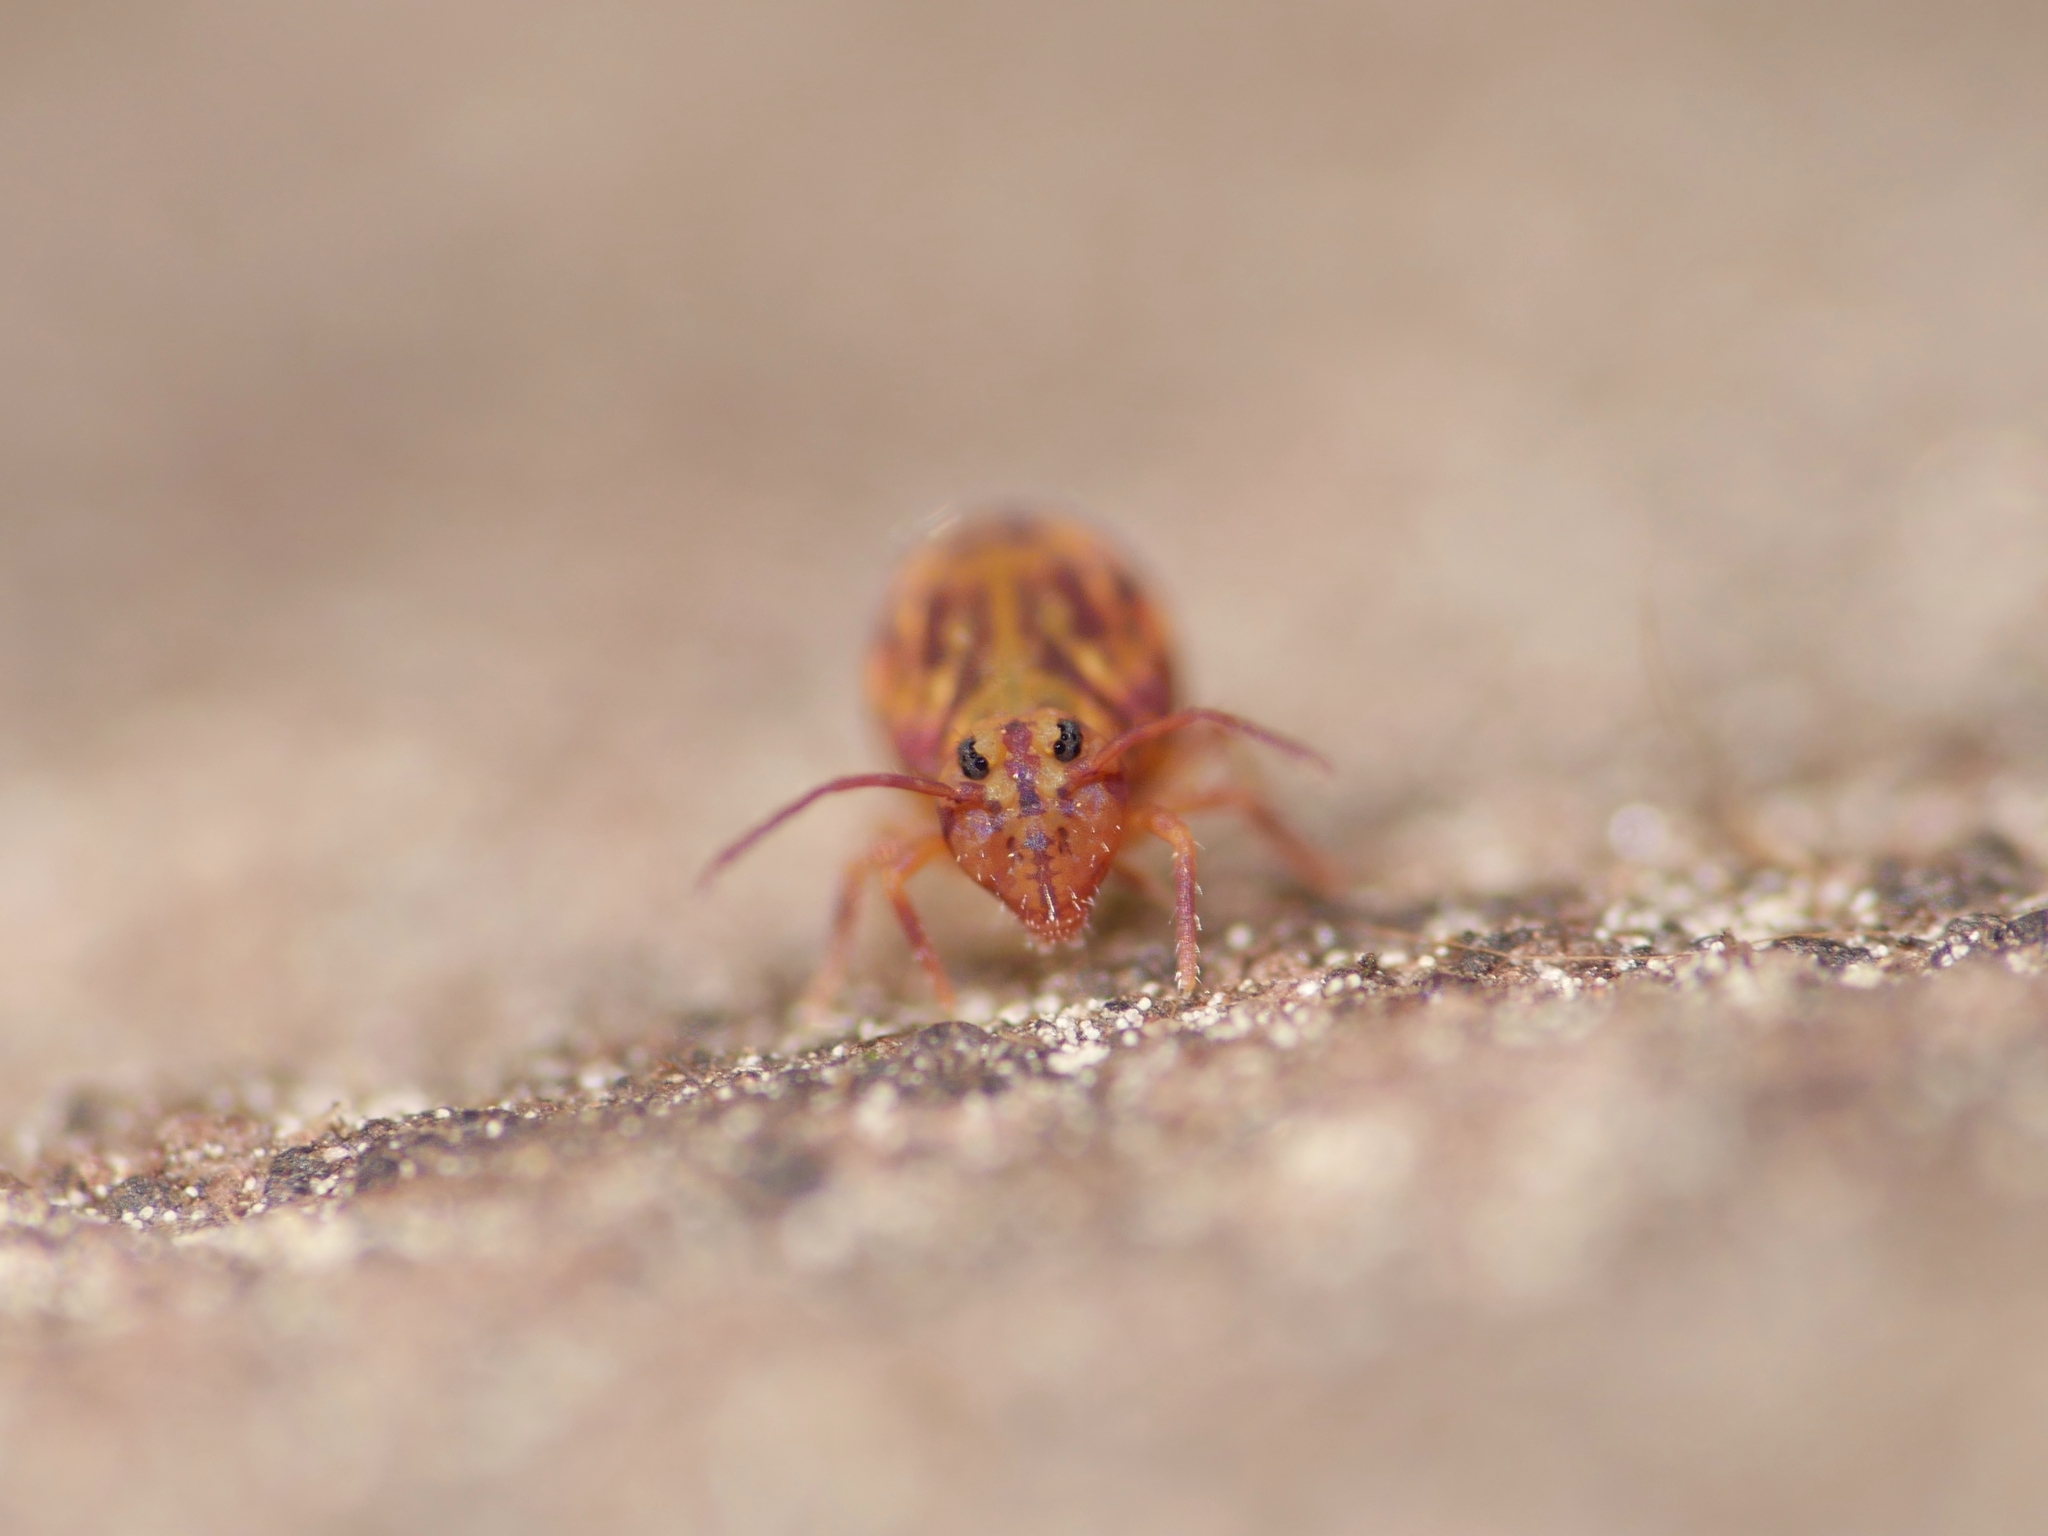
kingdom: Animalia
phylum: Arthropoda
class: Collembola
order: Symphypleona
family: Dicyrtomidae
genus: Dicyrtomina
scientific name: Dicyrtomina ornata
